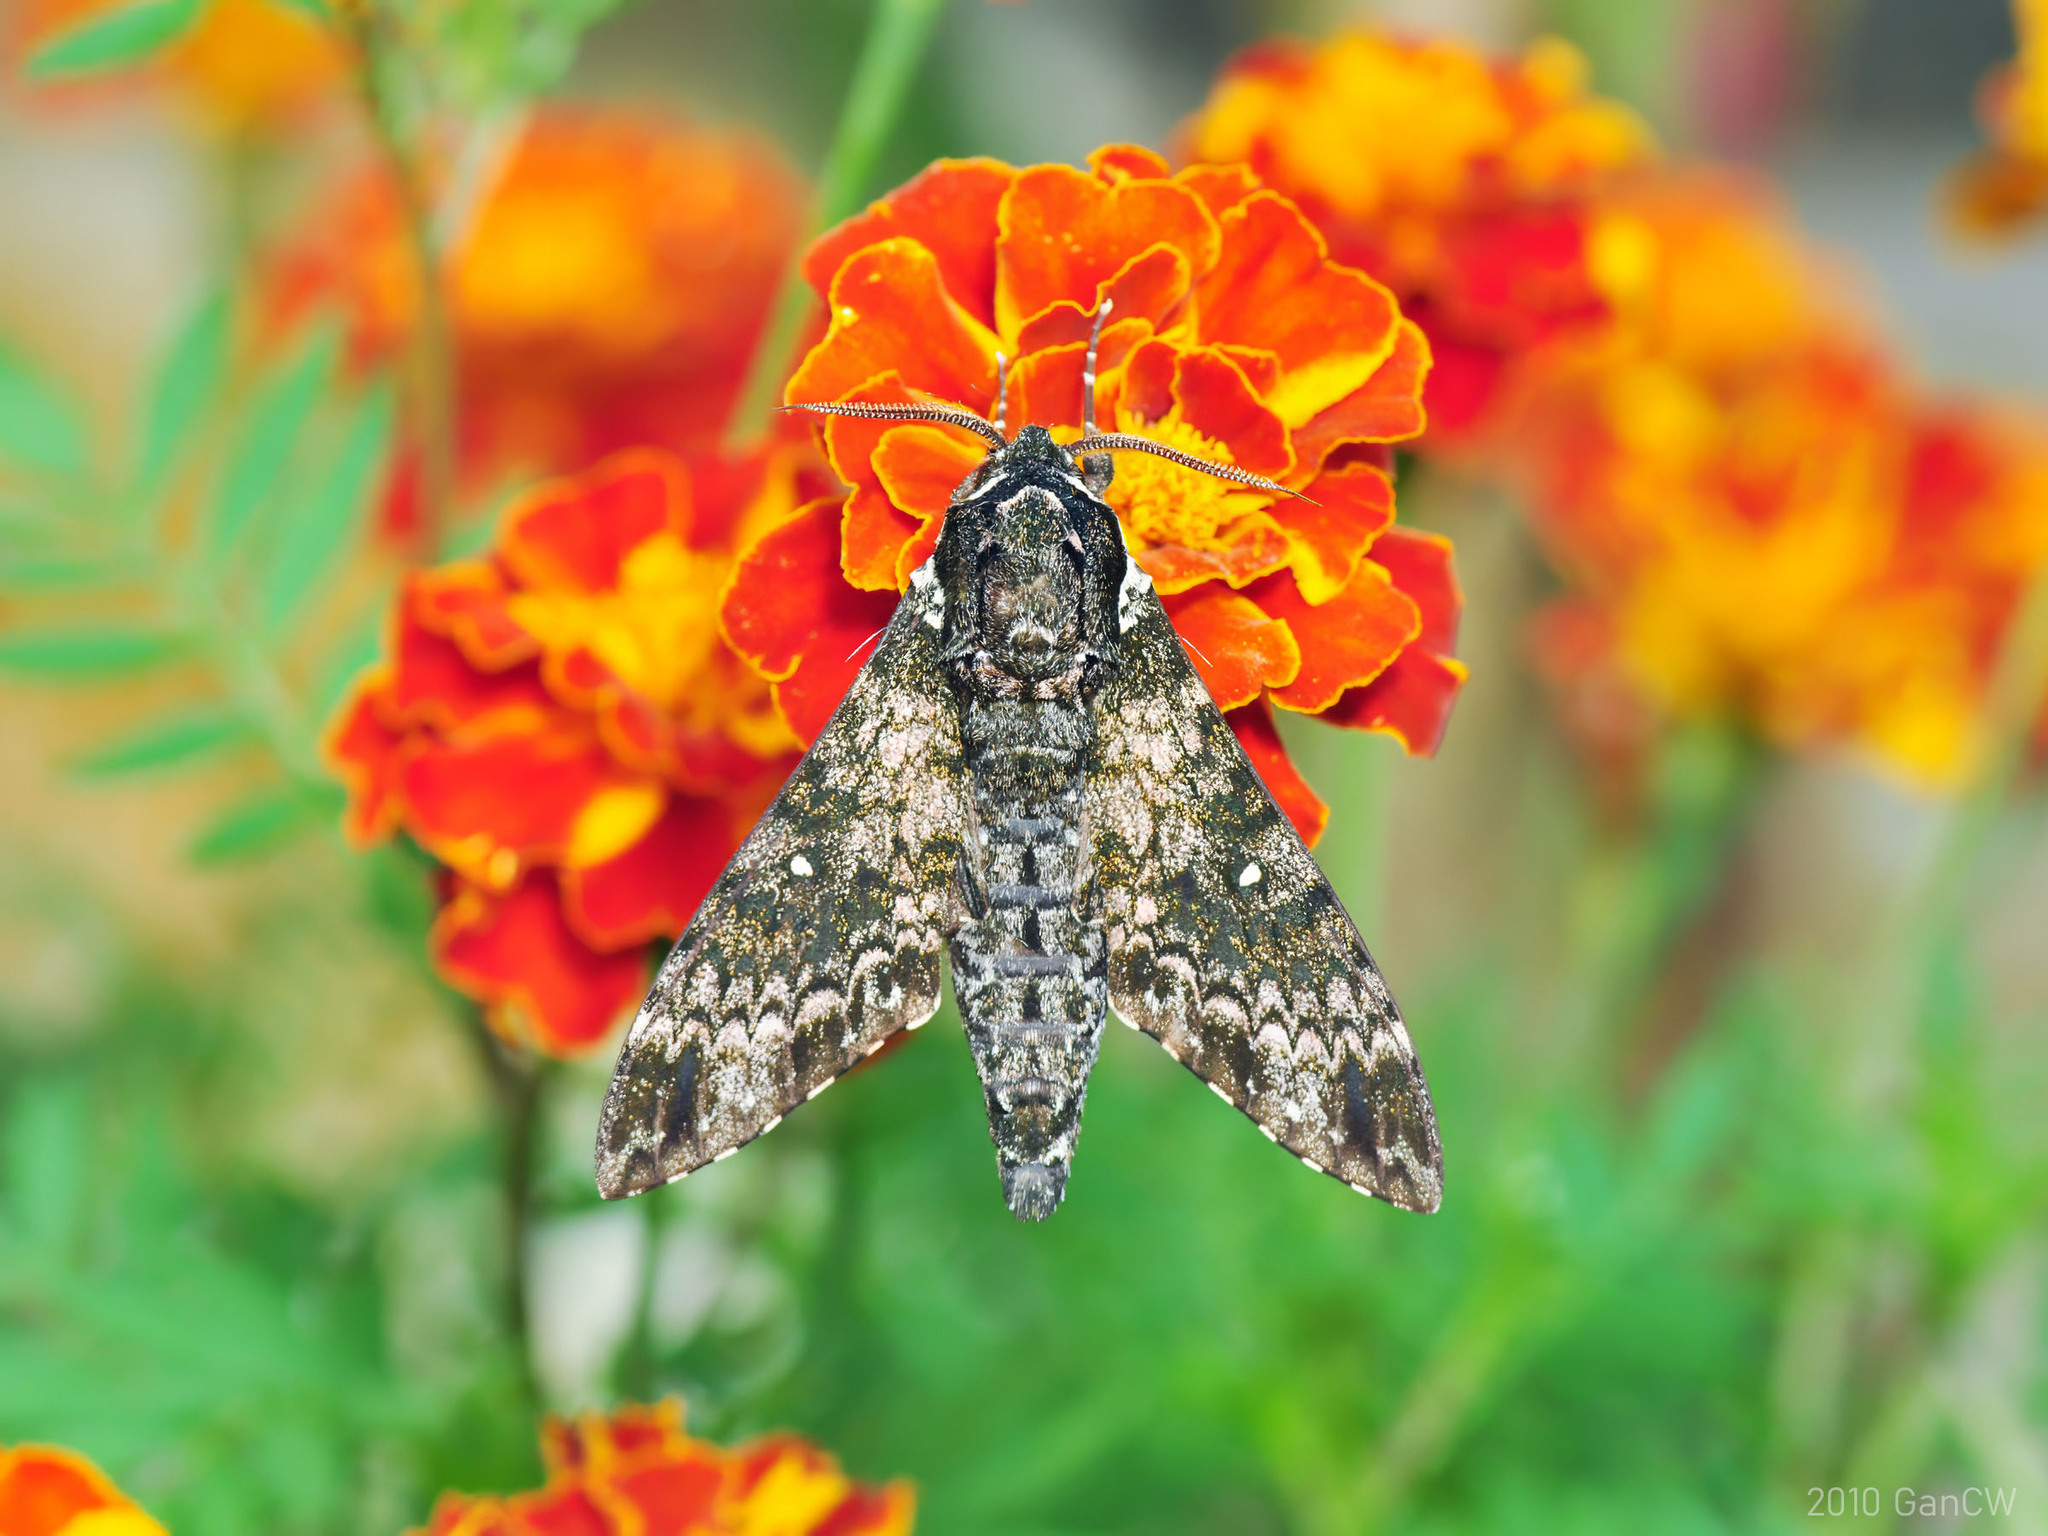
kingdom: Animalia
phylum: Arthropoda
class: Insecta
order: Lepidoptera
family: Sphingidae
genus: Dolbina
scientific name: Dolbina borneensis
